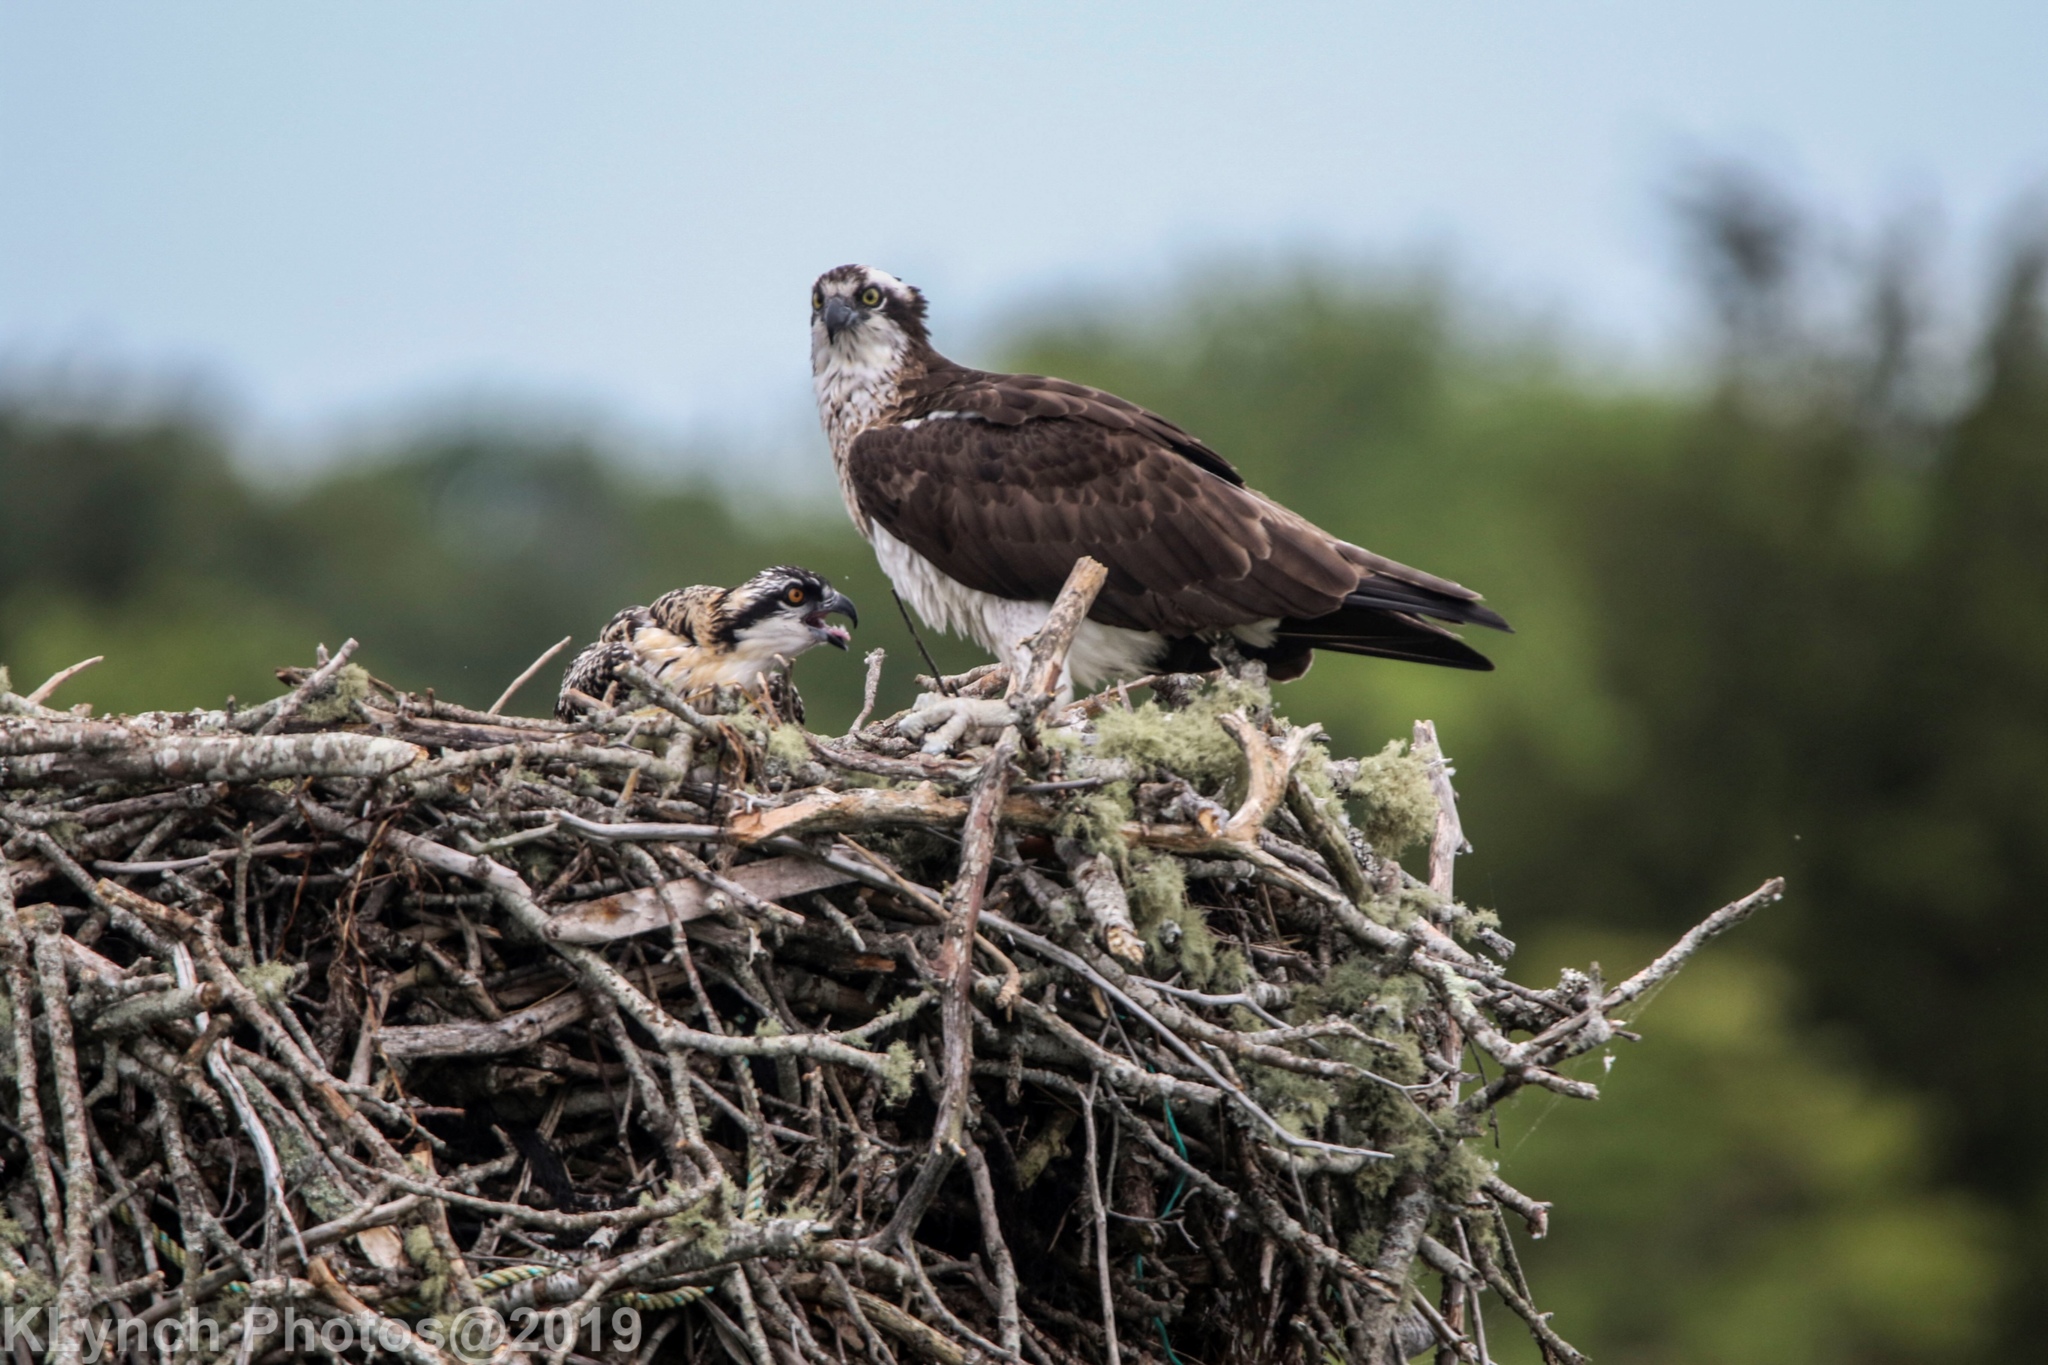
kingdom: Animalia
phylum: Chordata
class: Aves
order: Accipitriformes
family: Pandionidae
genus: Pandion
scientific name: Pandion haliaetus
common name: Osprey
